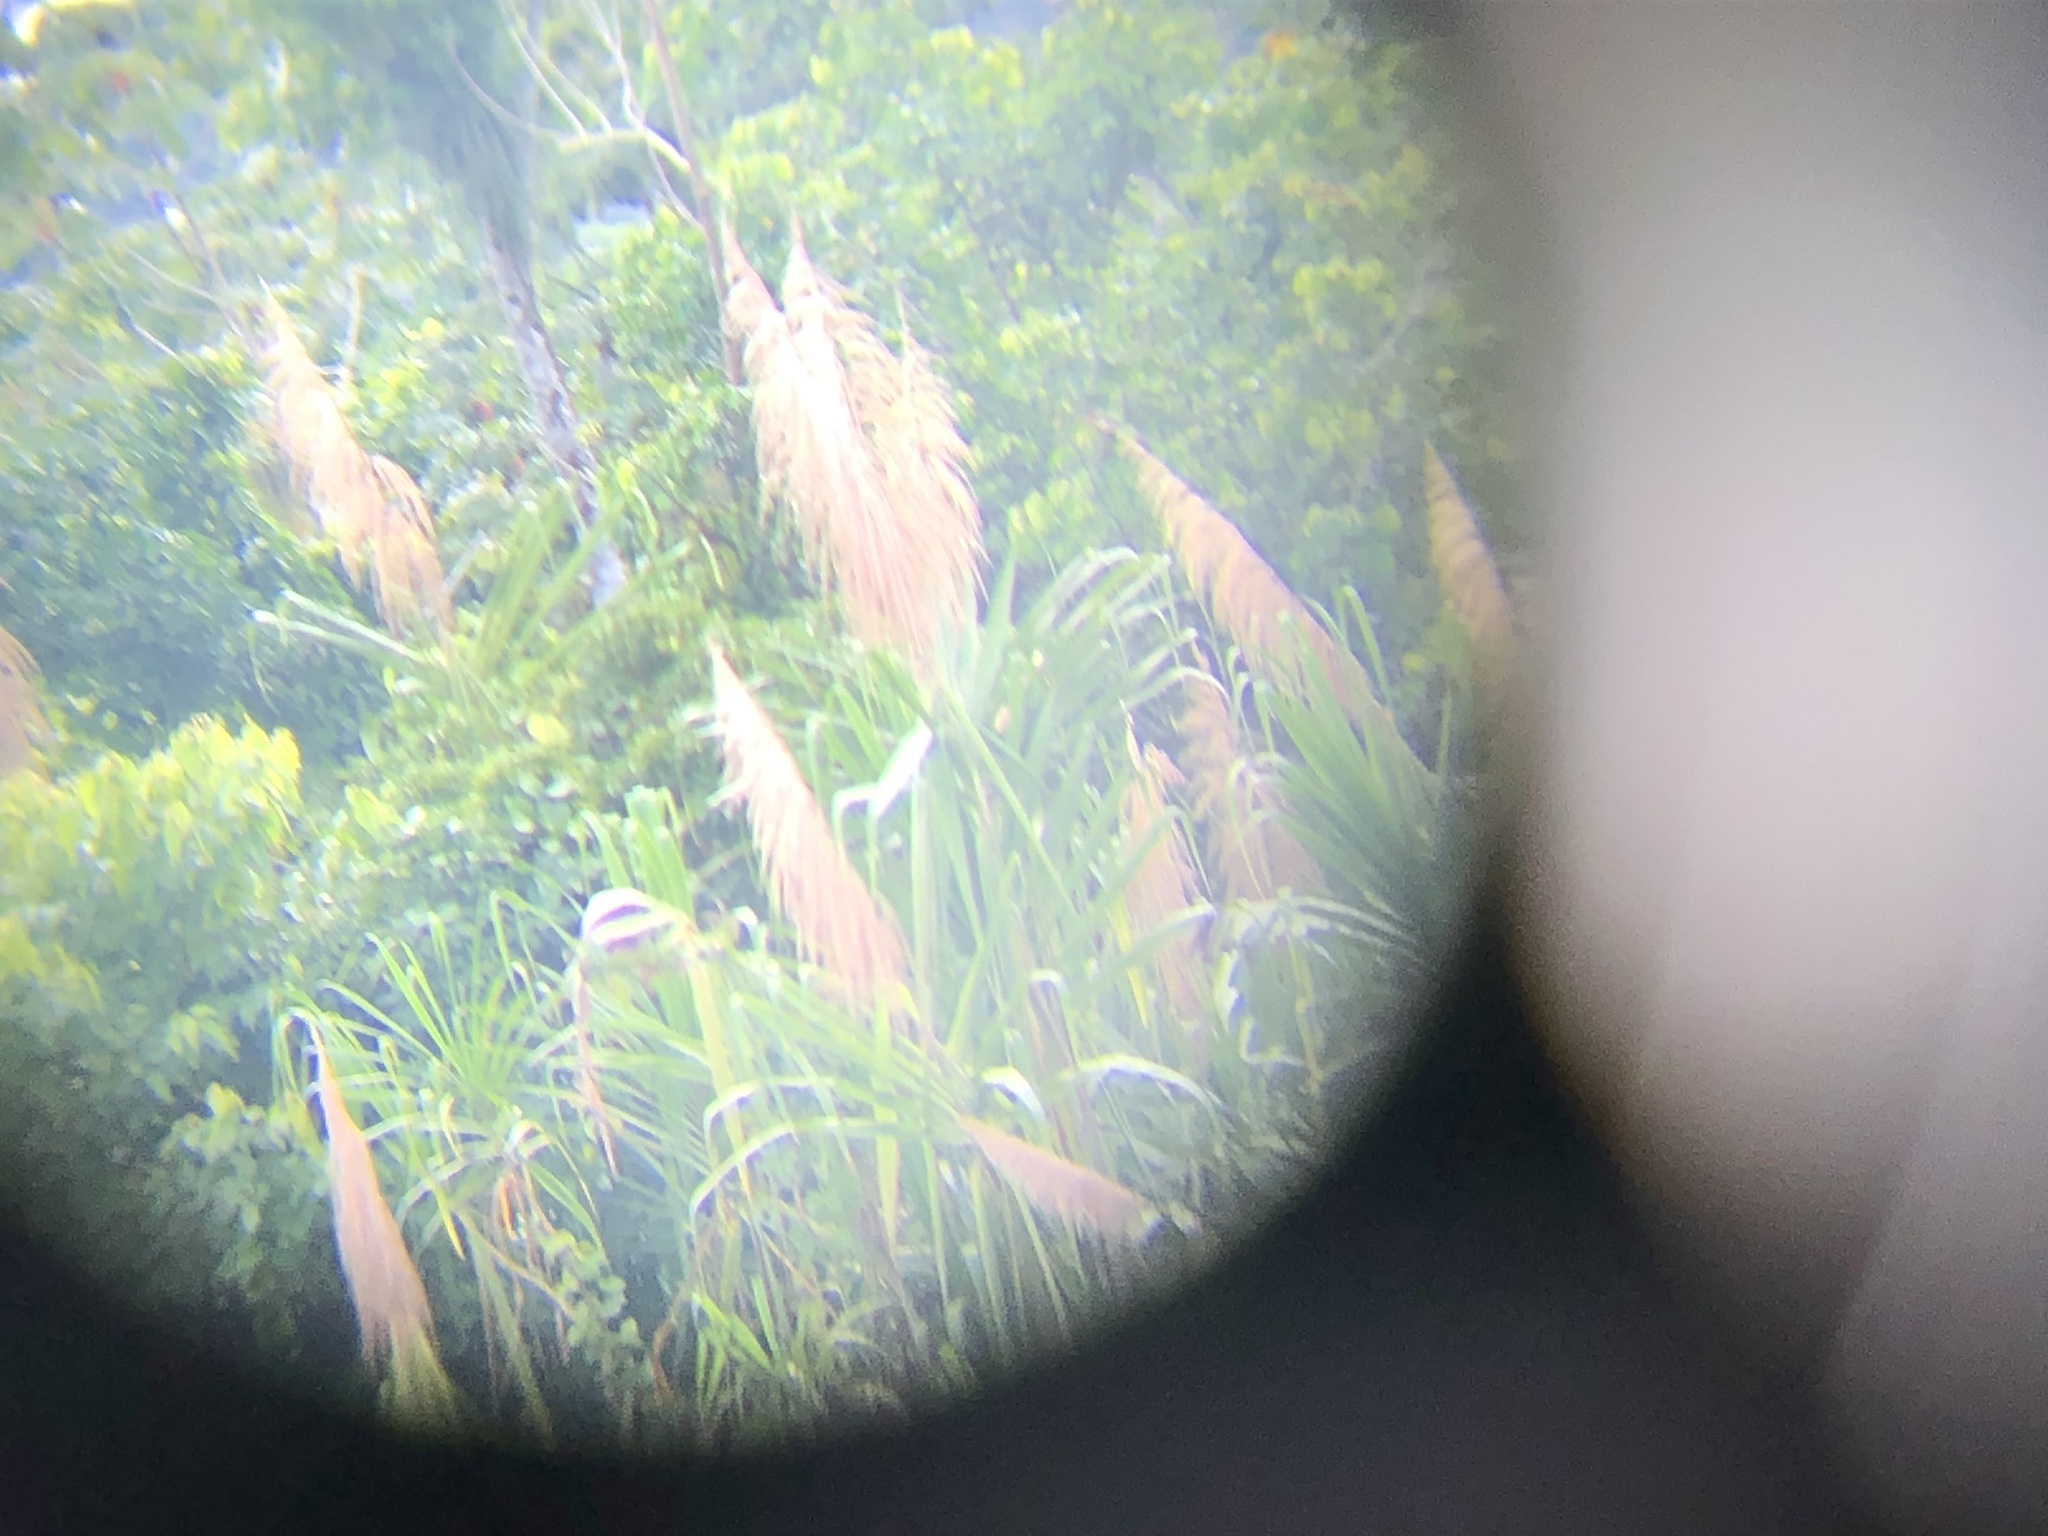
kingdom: Plantae
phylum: Tracheophyta
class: Liliopsida
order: Poales
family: Poaceae
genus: Gynerium
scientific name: Gynerium sagittatum
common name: Wild cane
